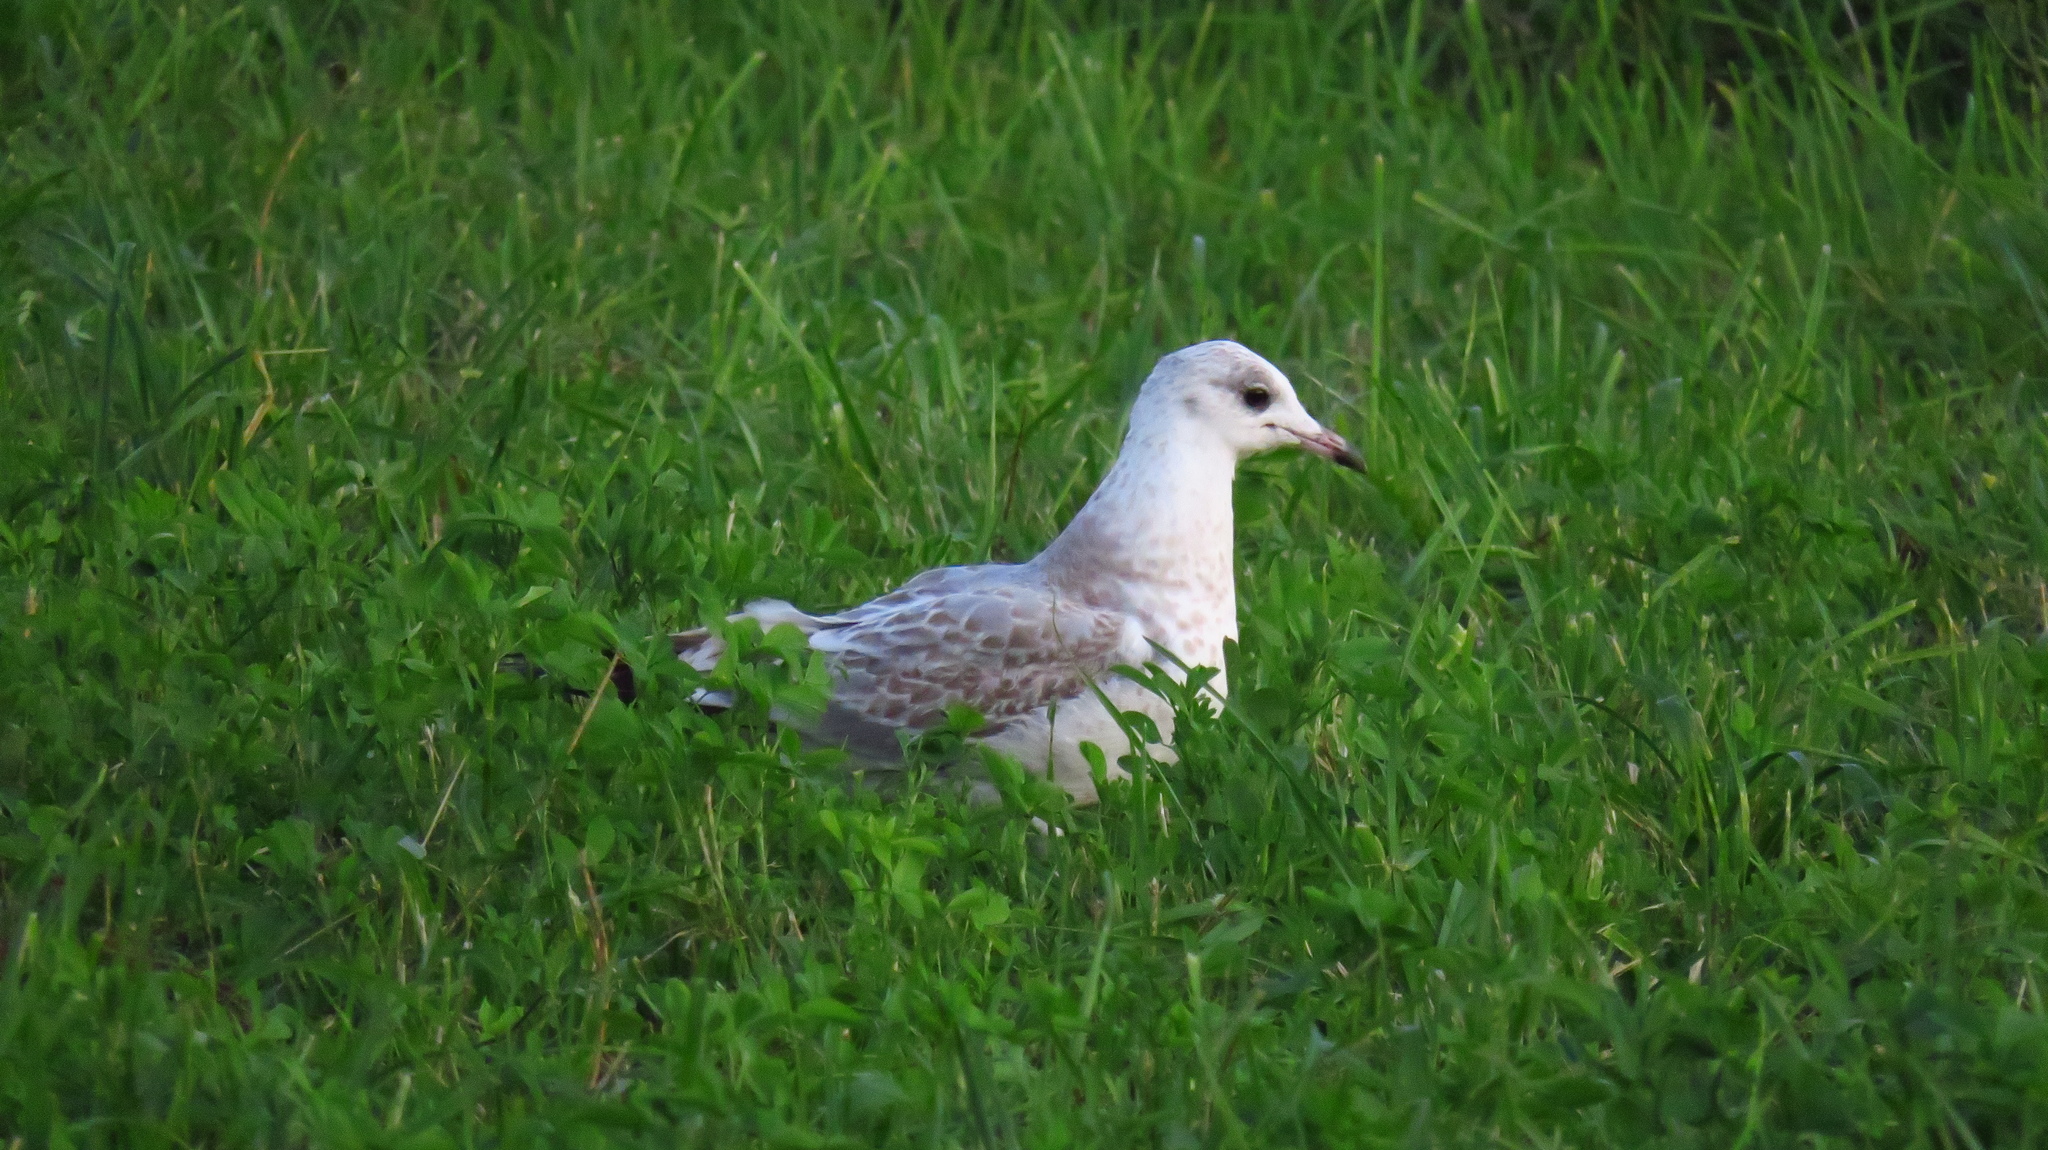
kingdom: Animalia
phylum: Chordata
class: Aves
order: Charadriiformes
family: Laridae
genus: Larus
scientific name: Larus canus
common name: Mew gull
